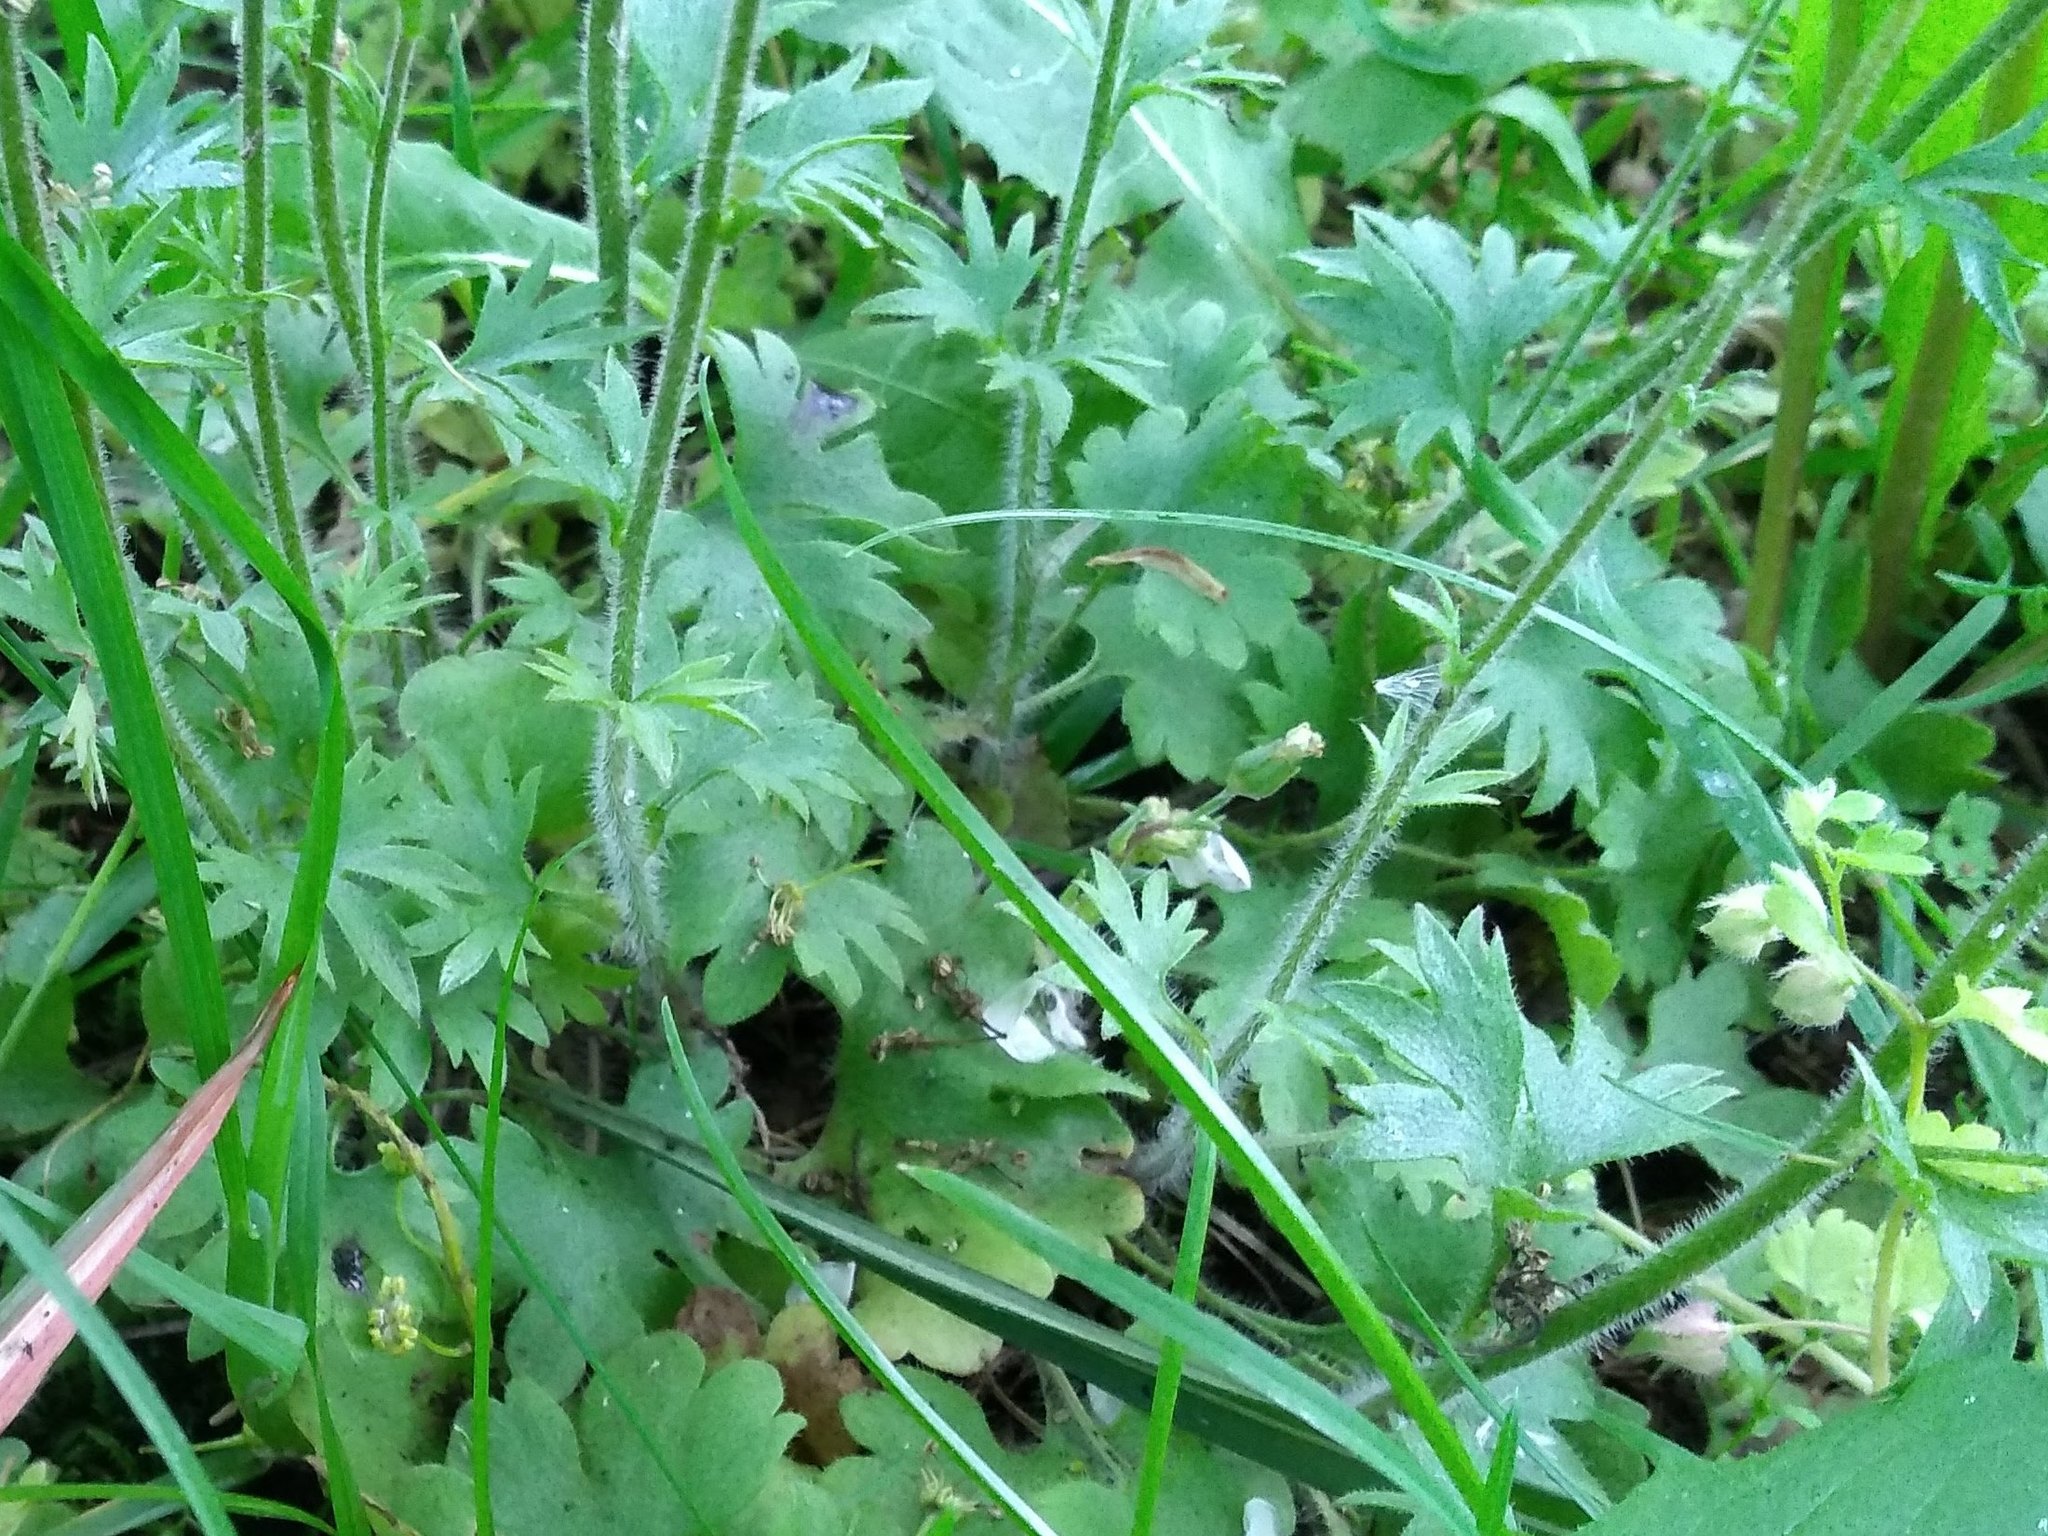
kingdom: Plantae
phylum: Tracheophyta
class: Magnoliopsida
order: Saxifragales
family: Saxifragaceae
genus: Saxifraga
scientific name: Saxifraga granulata
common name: Meadow saxifrage
